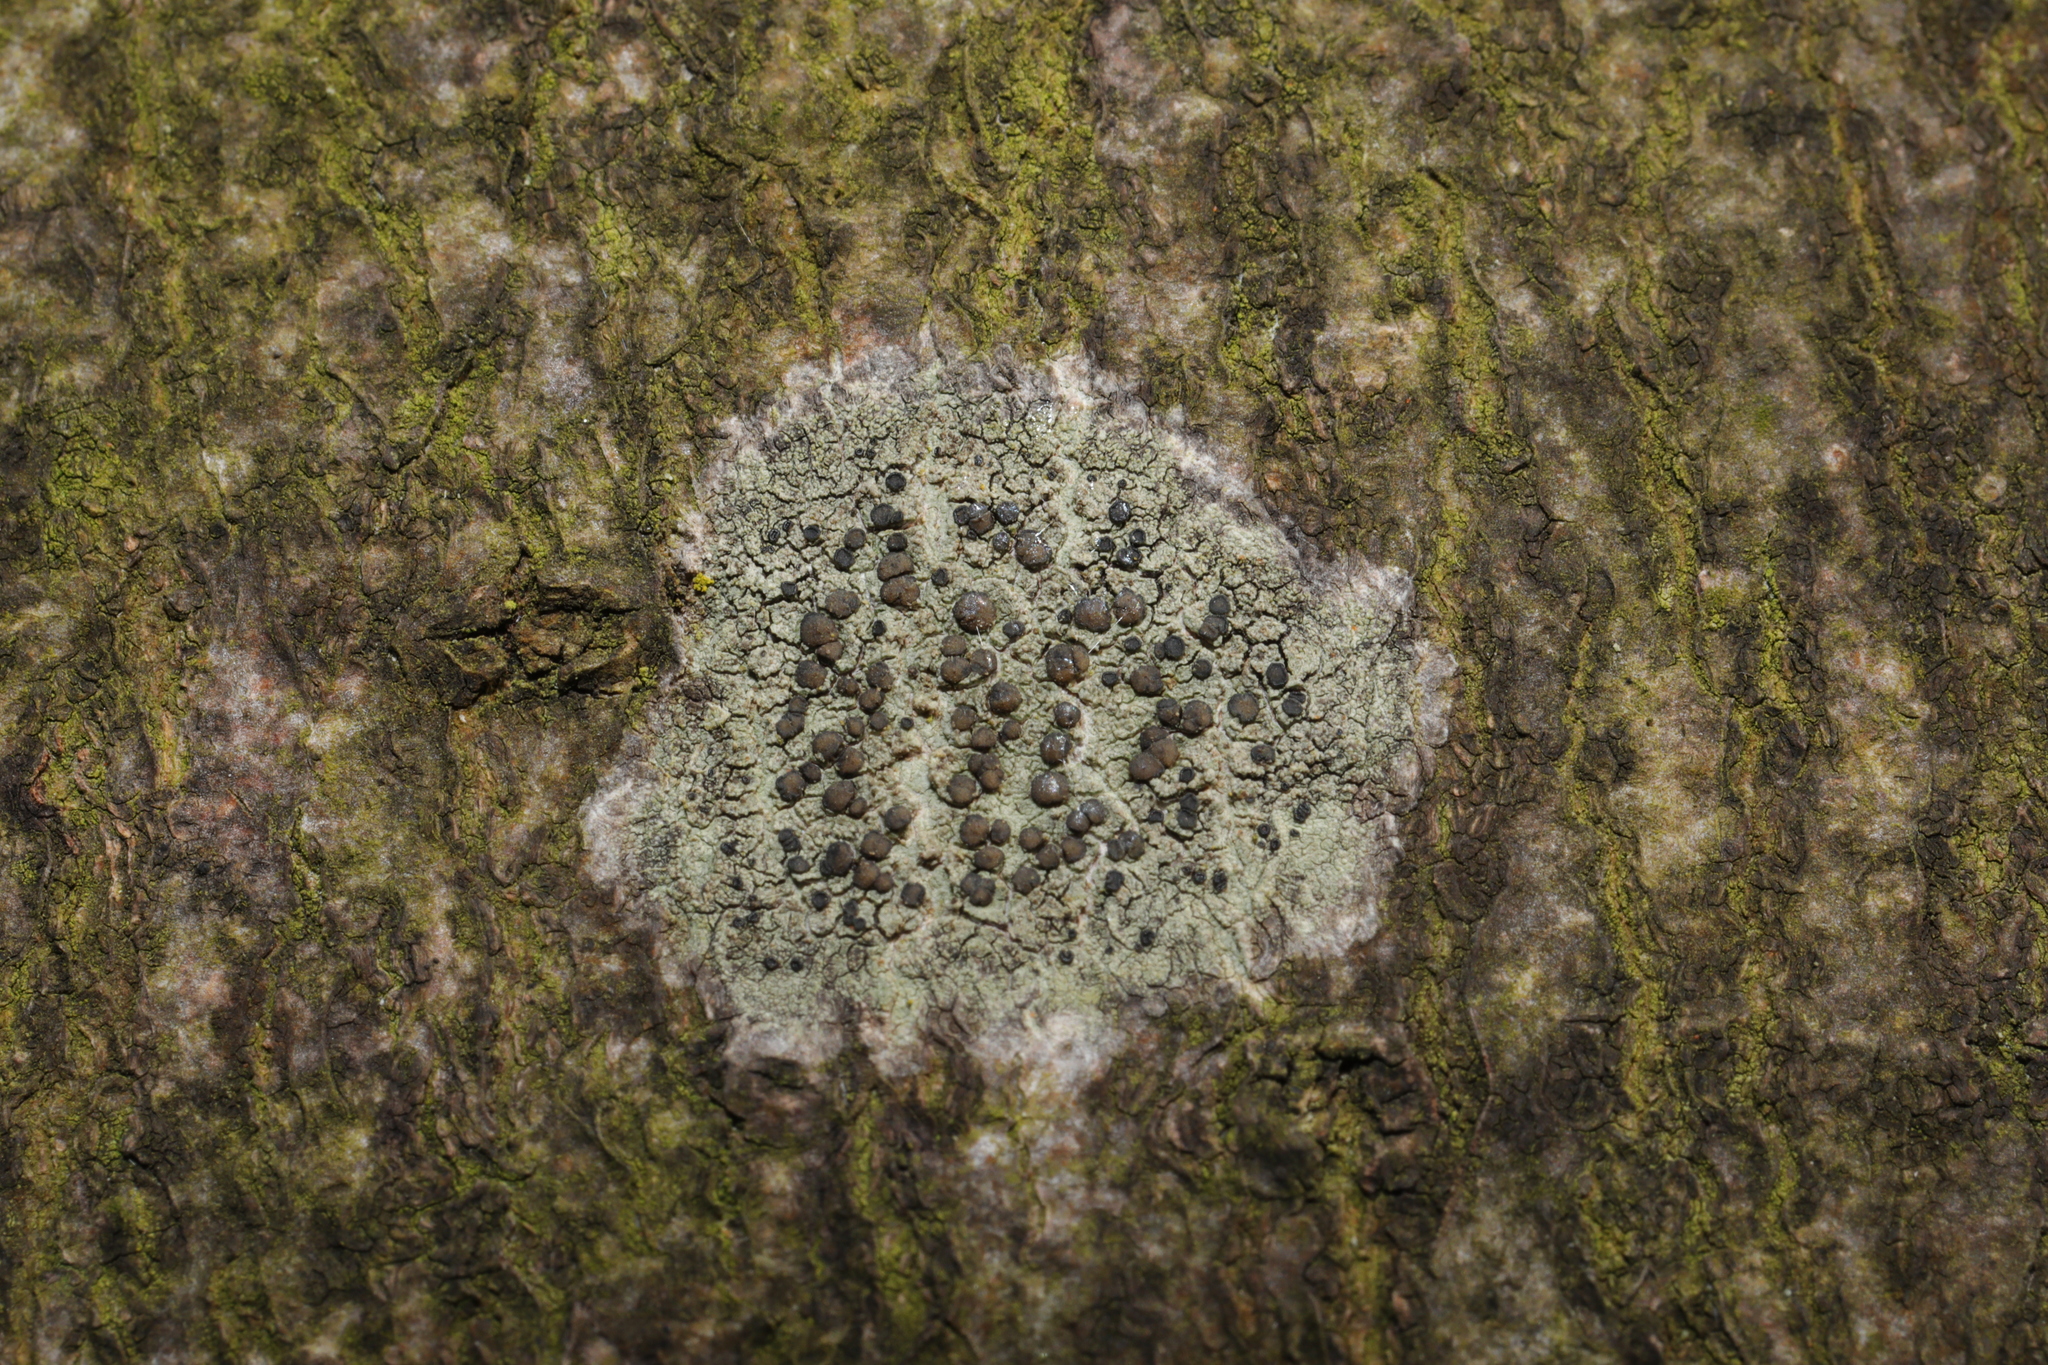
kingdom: Fungi
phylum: Ascomycota
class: Lecanoromycetes
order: Lecanorales
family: Lecanoraceae
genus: Lecidella
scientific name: Lecidella elaeochroma
